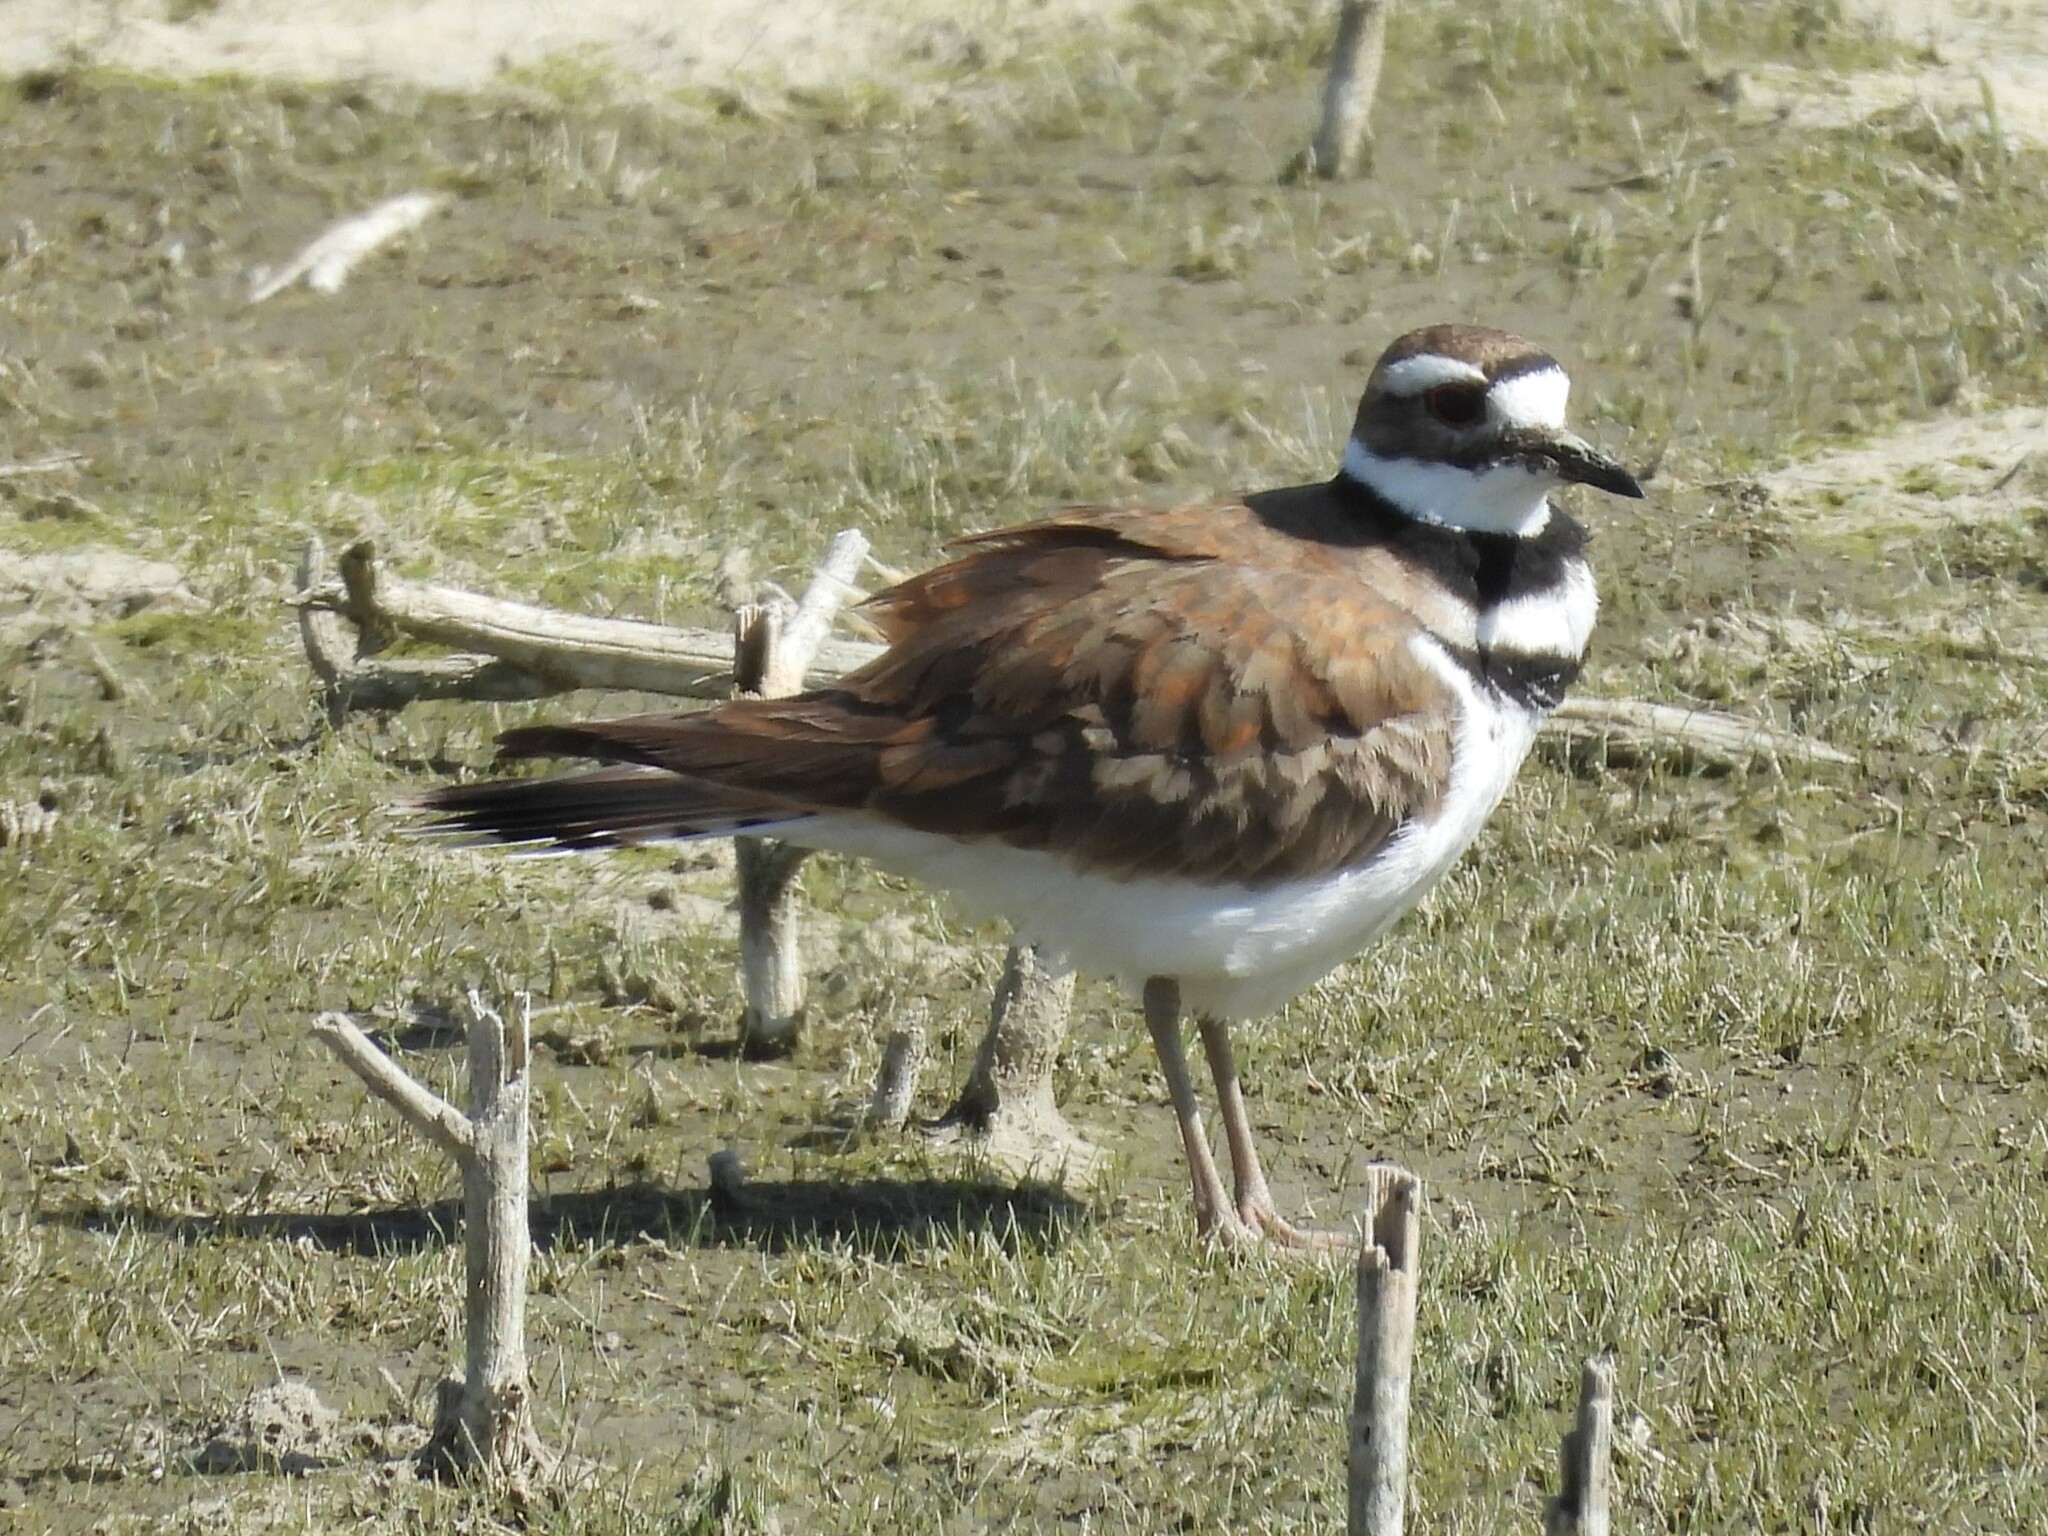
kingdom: Animalia
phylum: Chordata
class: Aves
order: Charadriiformes
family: Charadriidae
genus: Charadrius
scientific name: Charadrius vociferus
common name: Killdeer
